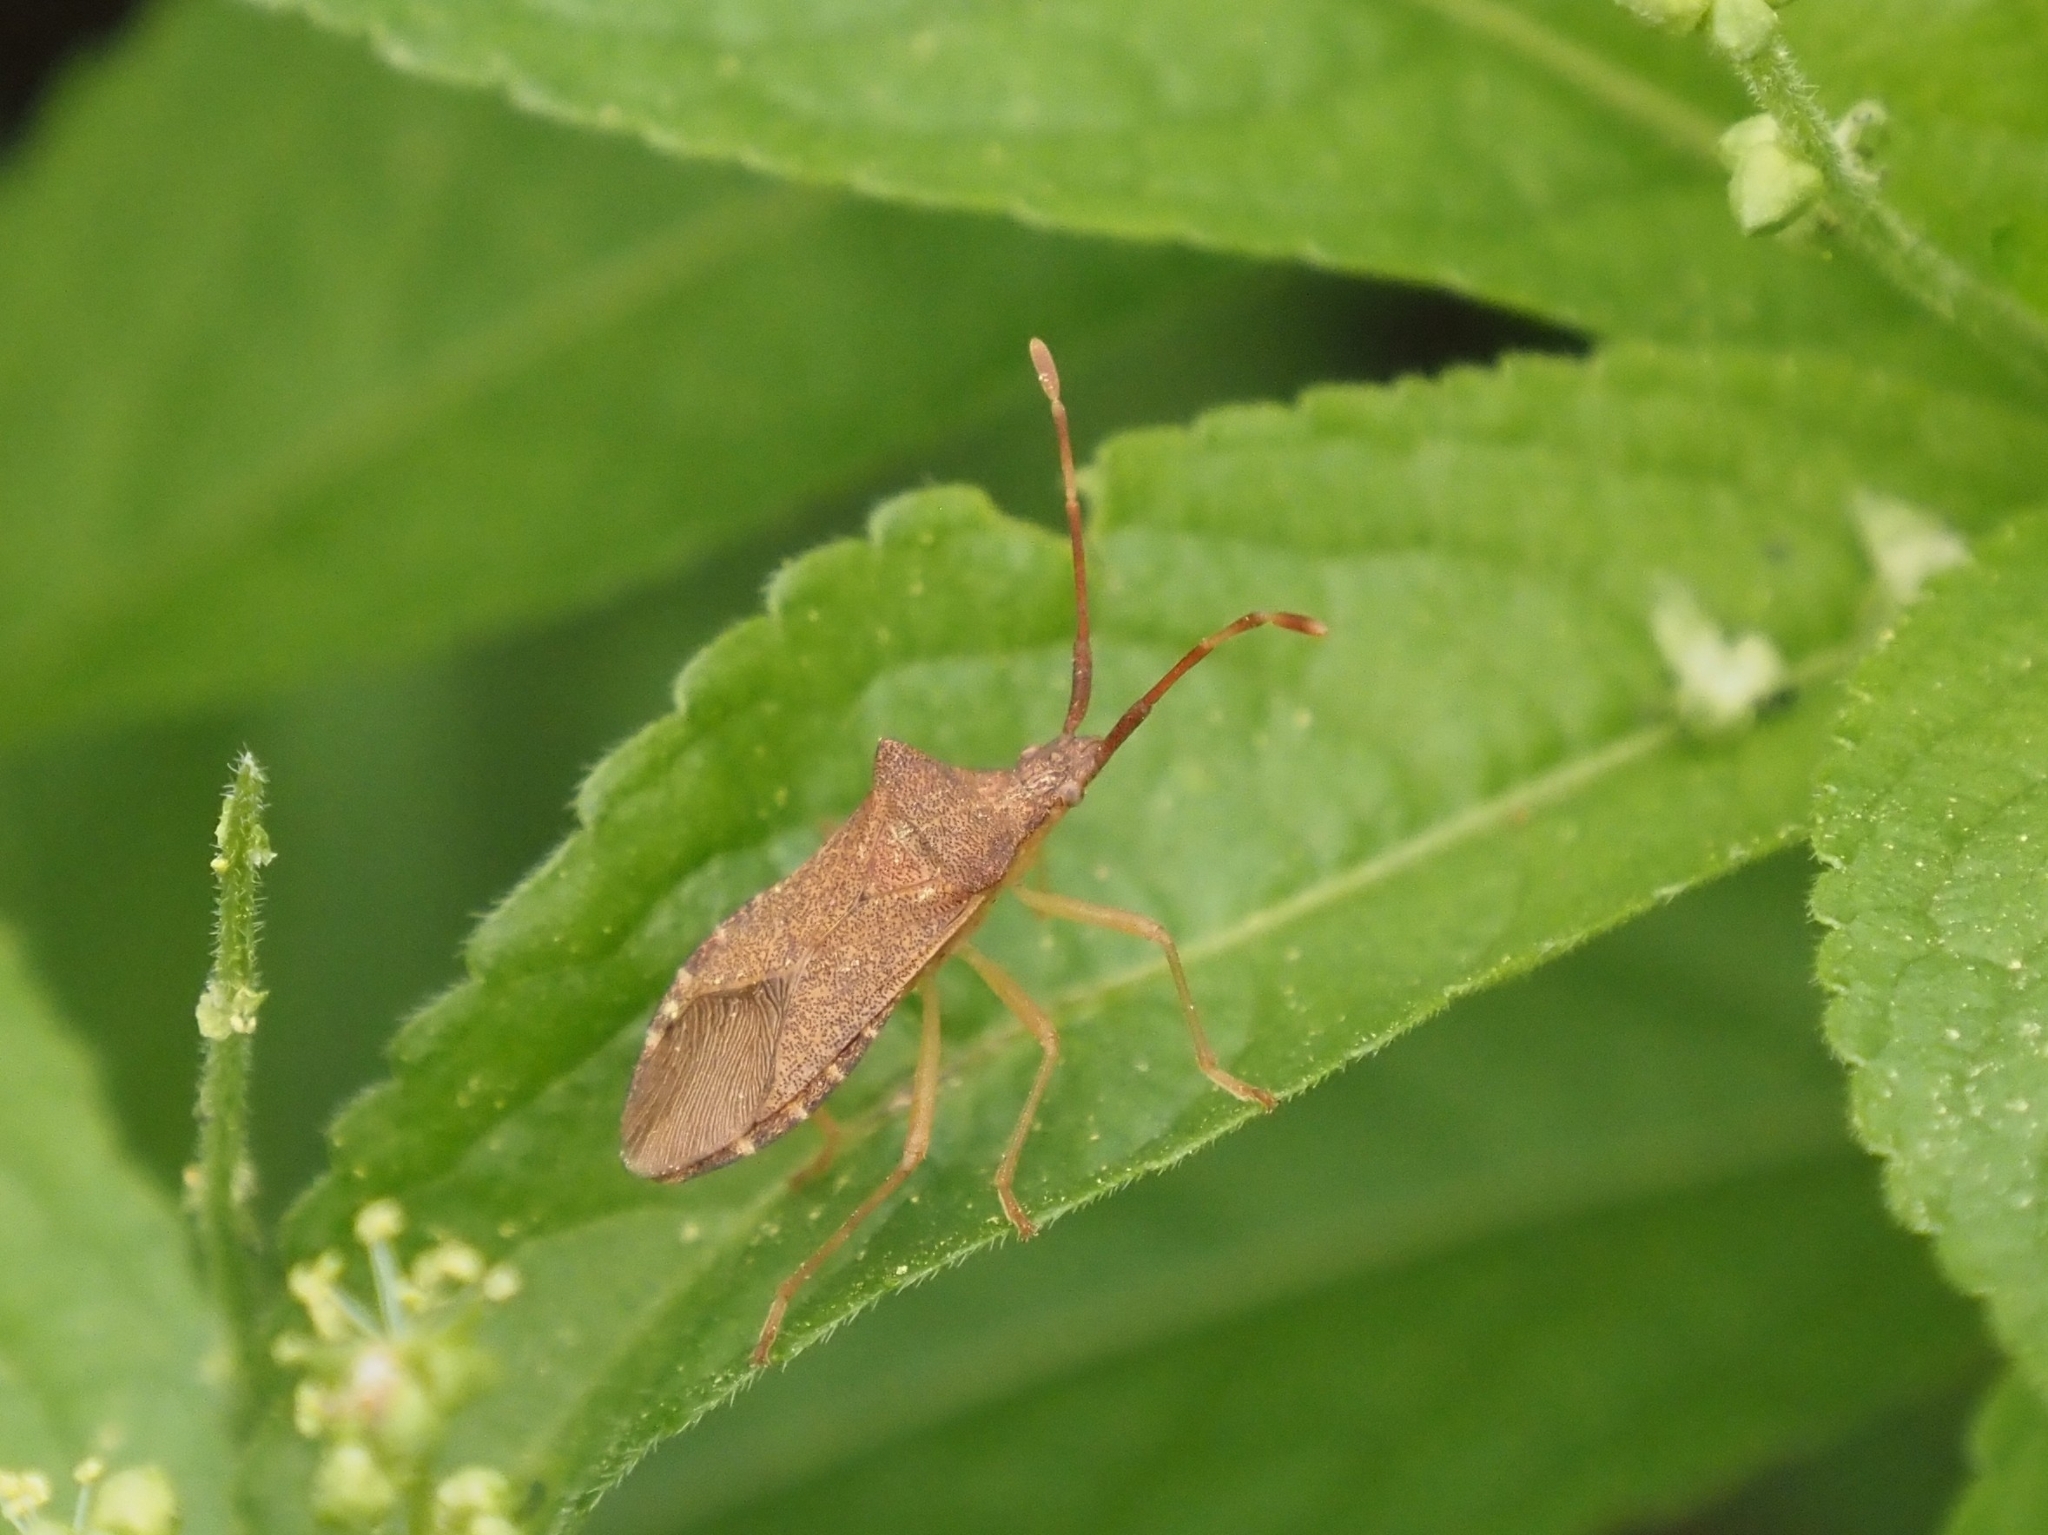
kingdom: Animalia
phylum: Arthropoda
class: Insecta
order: Hemiptera
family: Coreidae
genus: Gonocerus
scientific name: Gonocerus acuteangulatus
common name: Box bug
